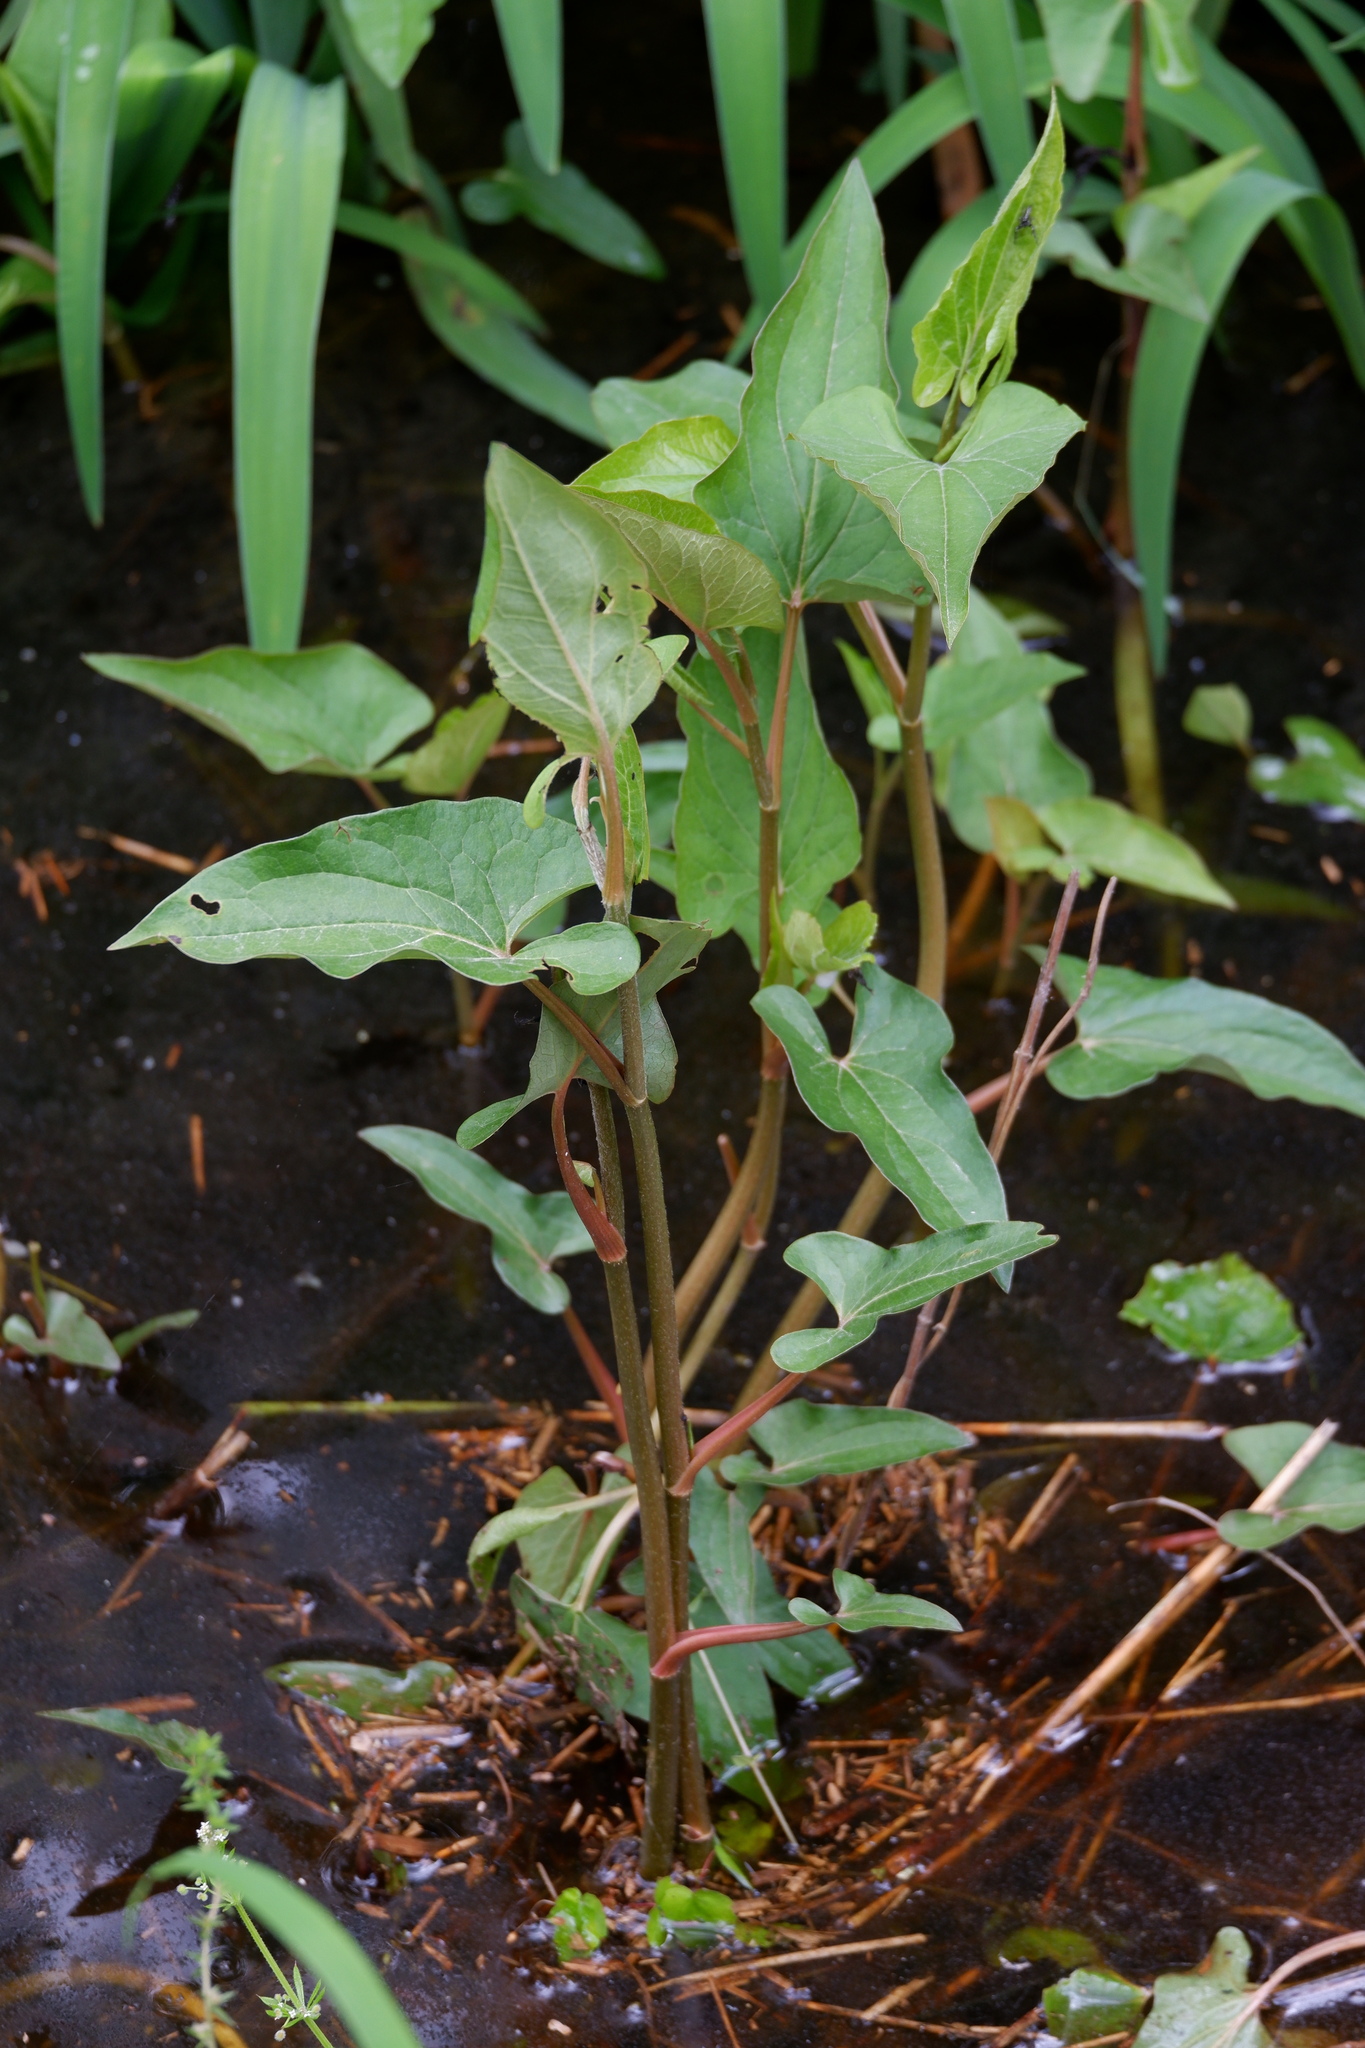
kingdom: Plantae
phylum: Tracheophyta
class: Magnoliopsida
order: Piperales
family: Saururaceae
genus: Saururus
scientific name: Saururus cernuus
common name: Lizard's-tail
